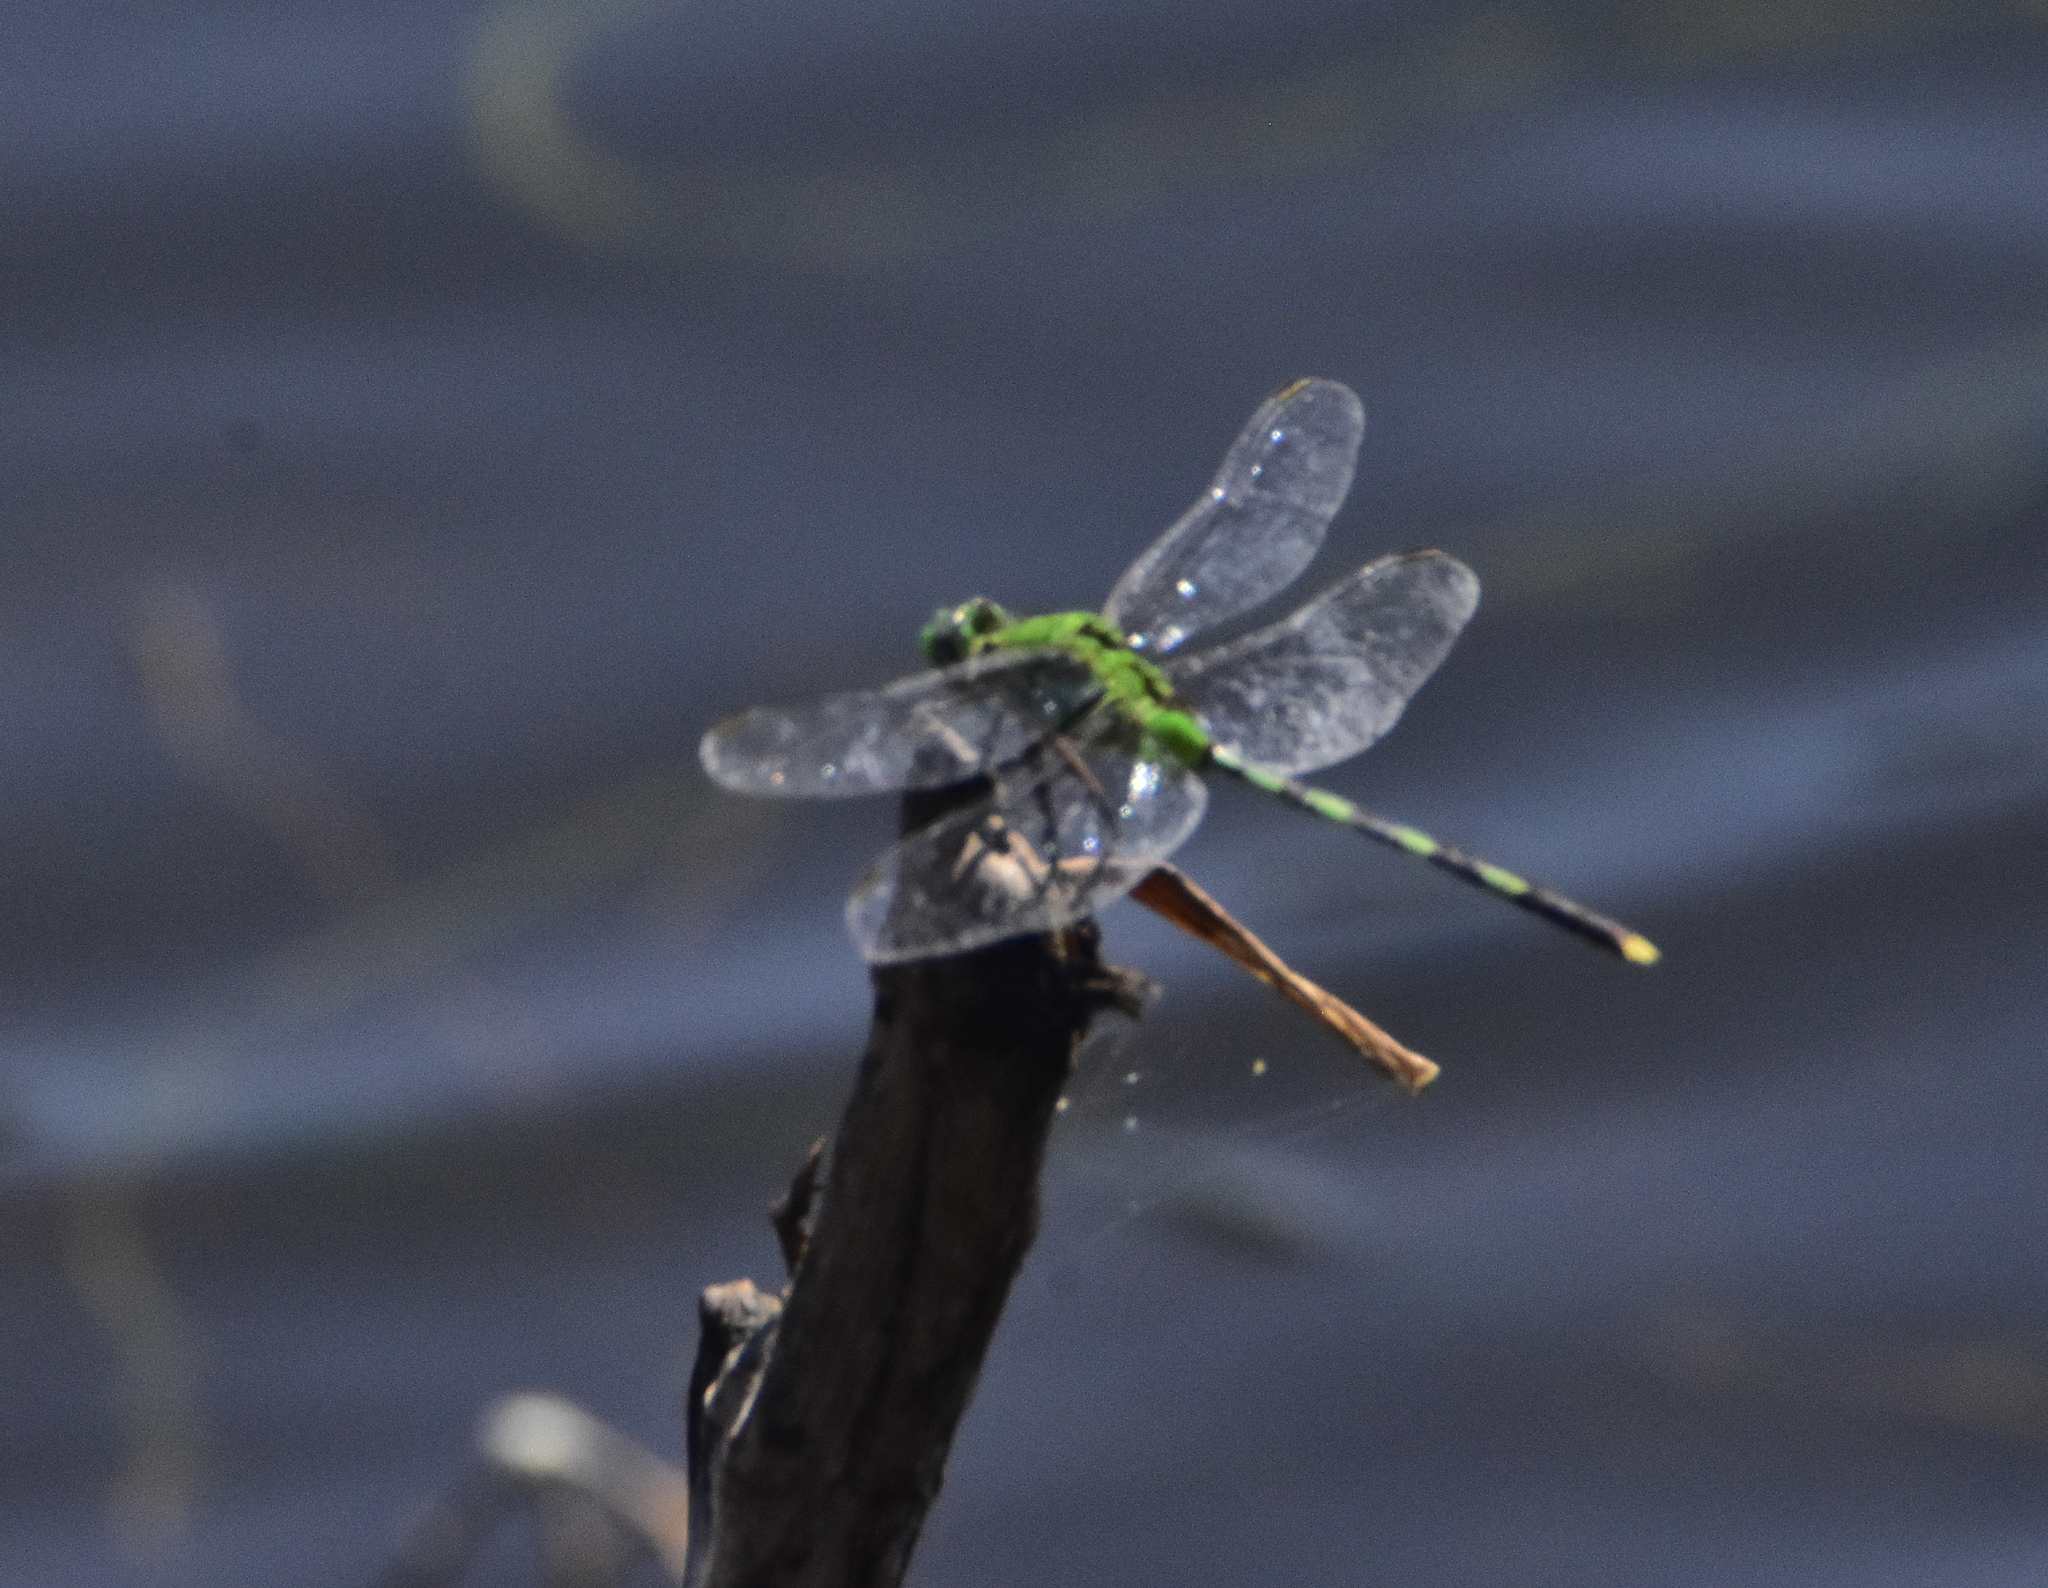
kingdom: Animalia
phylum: Arthropoda
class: Insecta
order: Odonata
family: Libellulidae
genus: Erythemis
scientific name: Erythemis vesiculosa
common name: Great pondhawk
